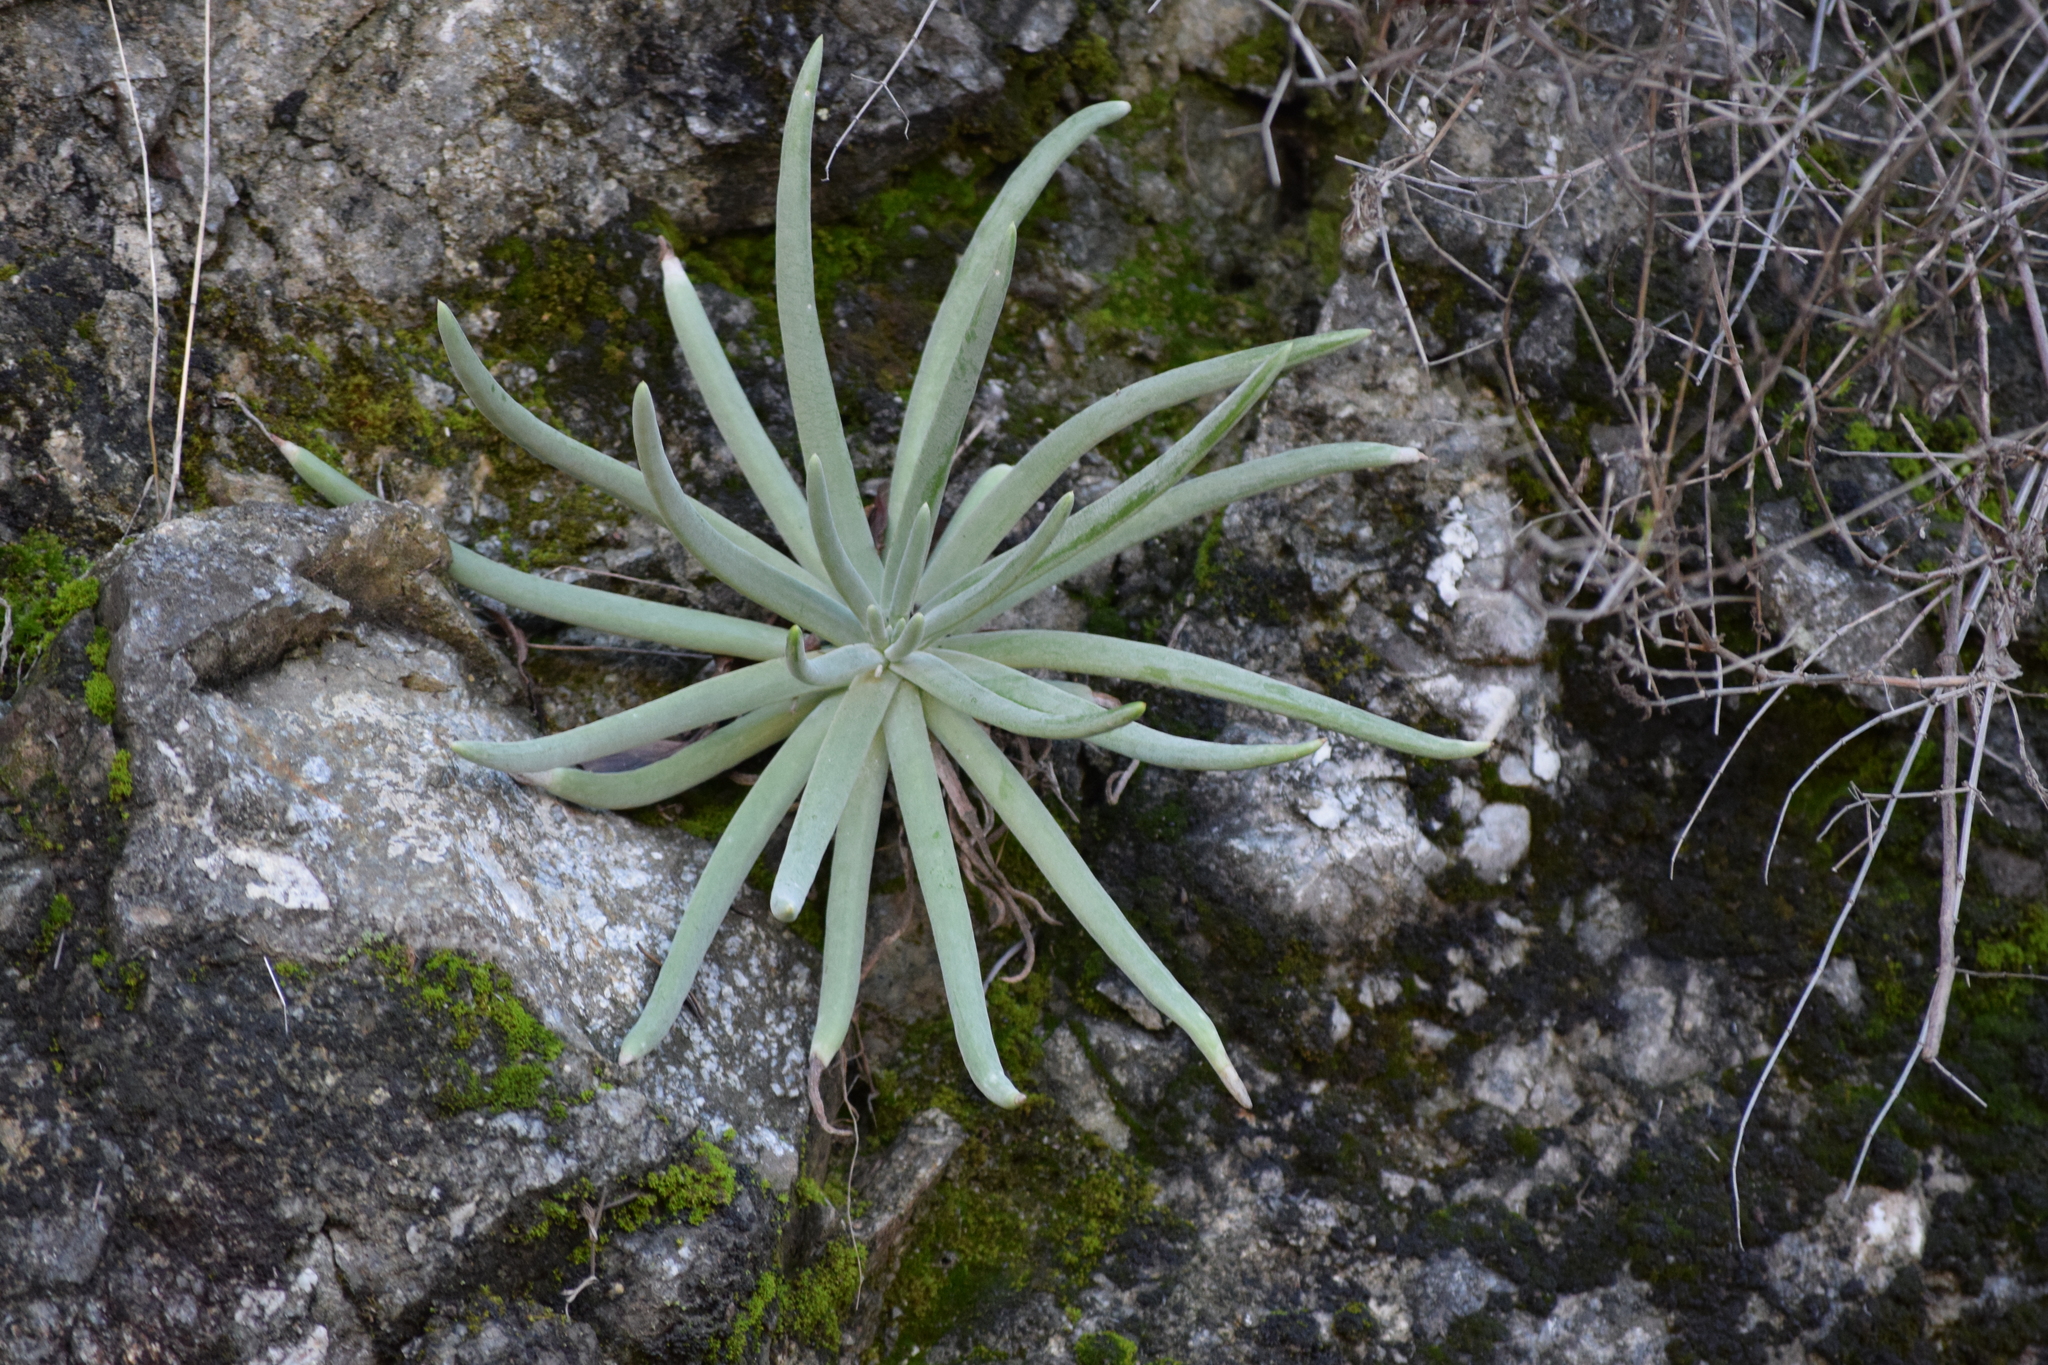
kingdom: Plantae
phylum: Tracheophyta
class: Magnoliopsida
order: Saxifragales
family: Crassulaceae
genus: Dudleya
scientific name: Dudleya densiflora
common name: San gabriel mountains dudleya
